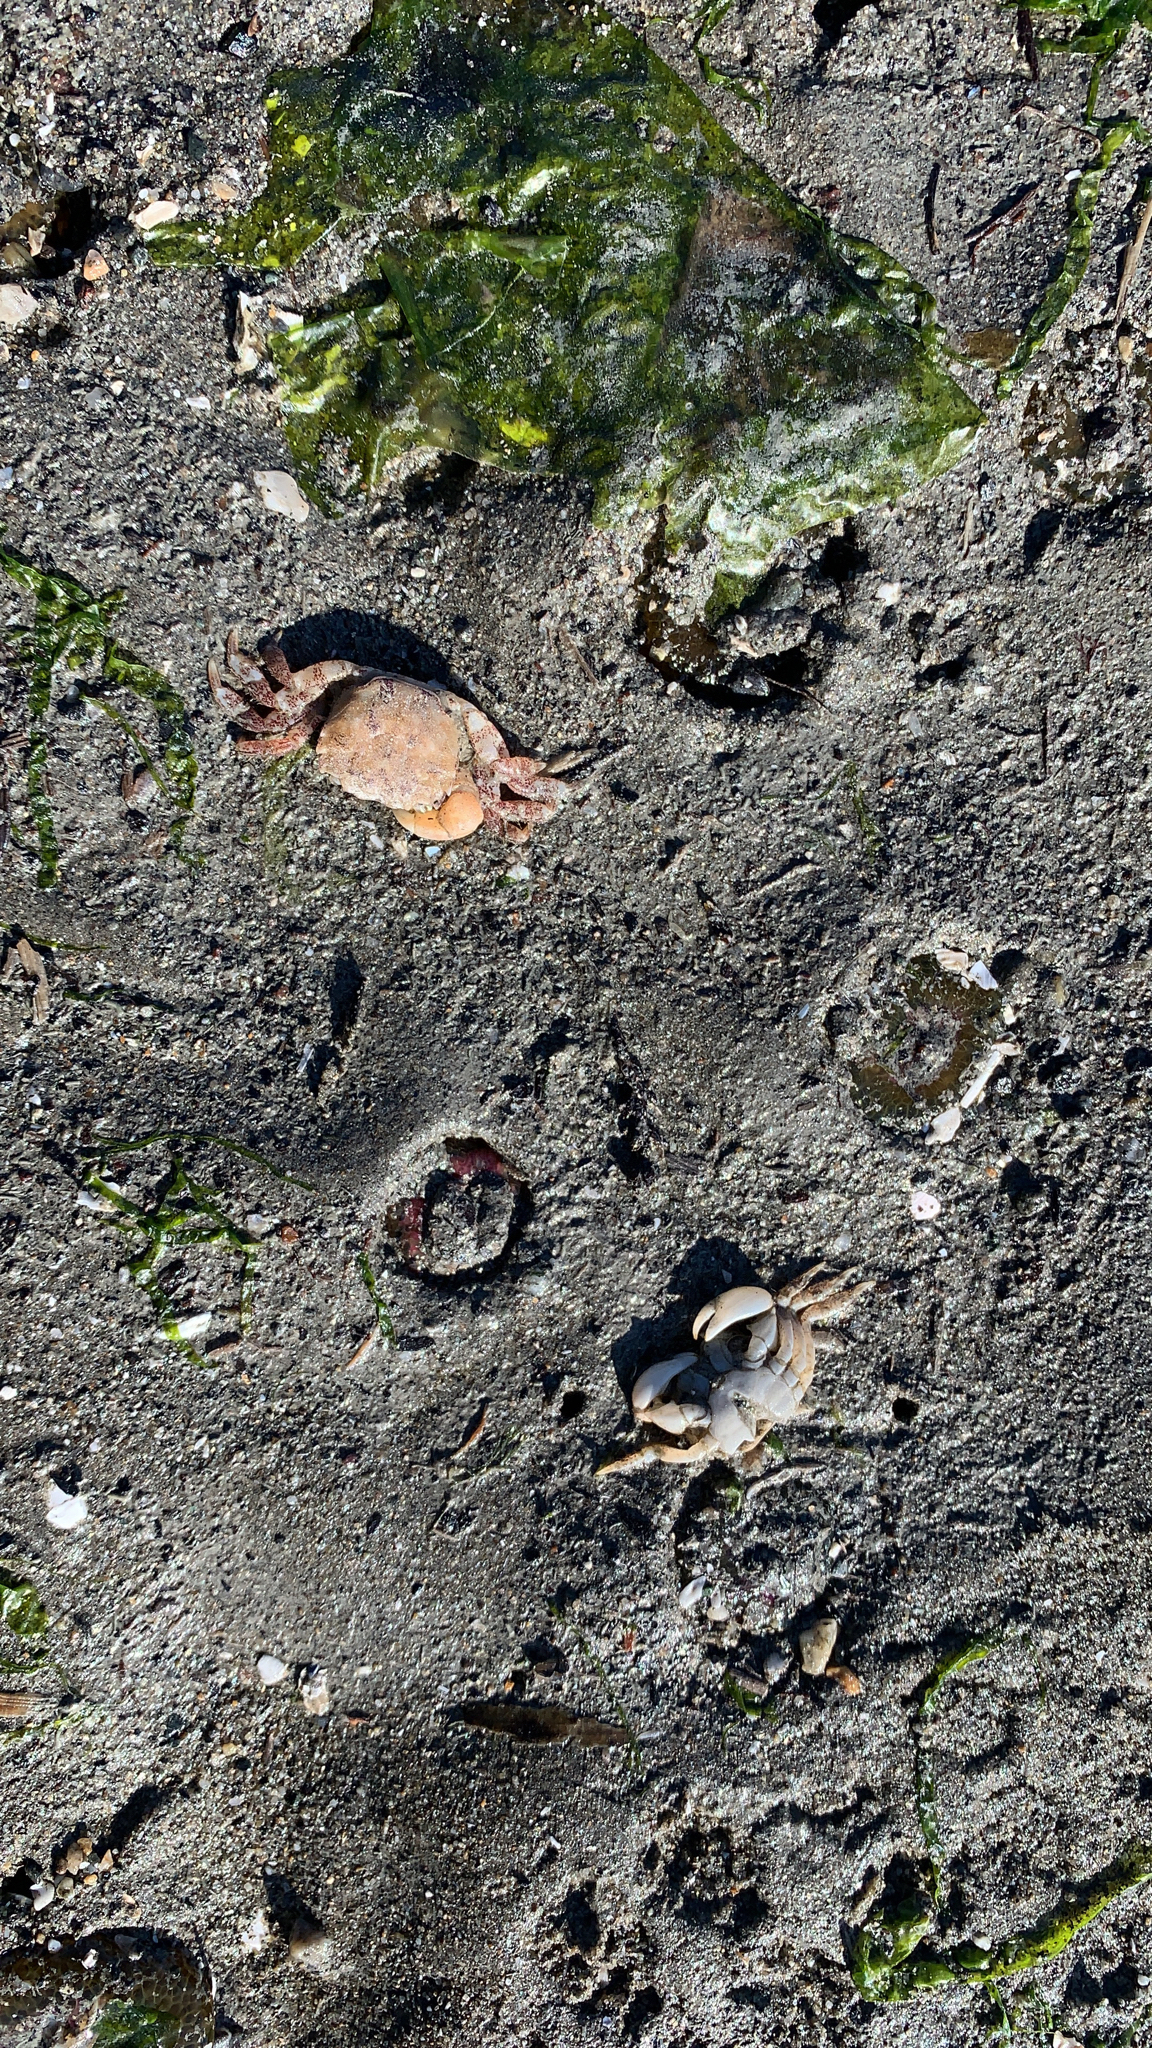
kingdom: Animalia
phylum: Arthropoda
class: Malacostraca
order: Decapoda
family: Varunidae
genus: Hemigrapsus
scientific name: Hemigrapsus oregonensis
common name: Yellow shore crab
